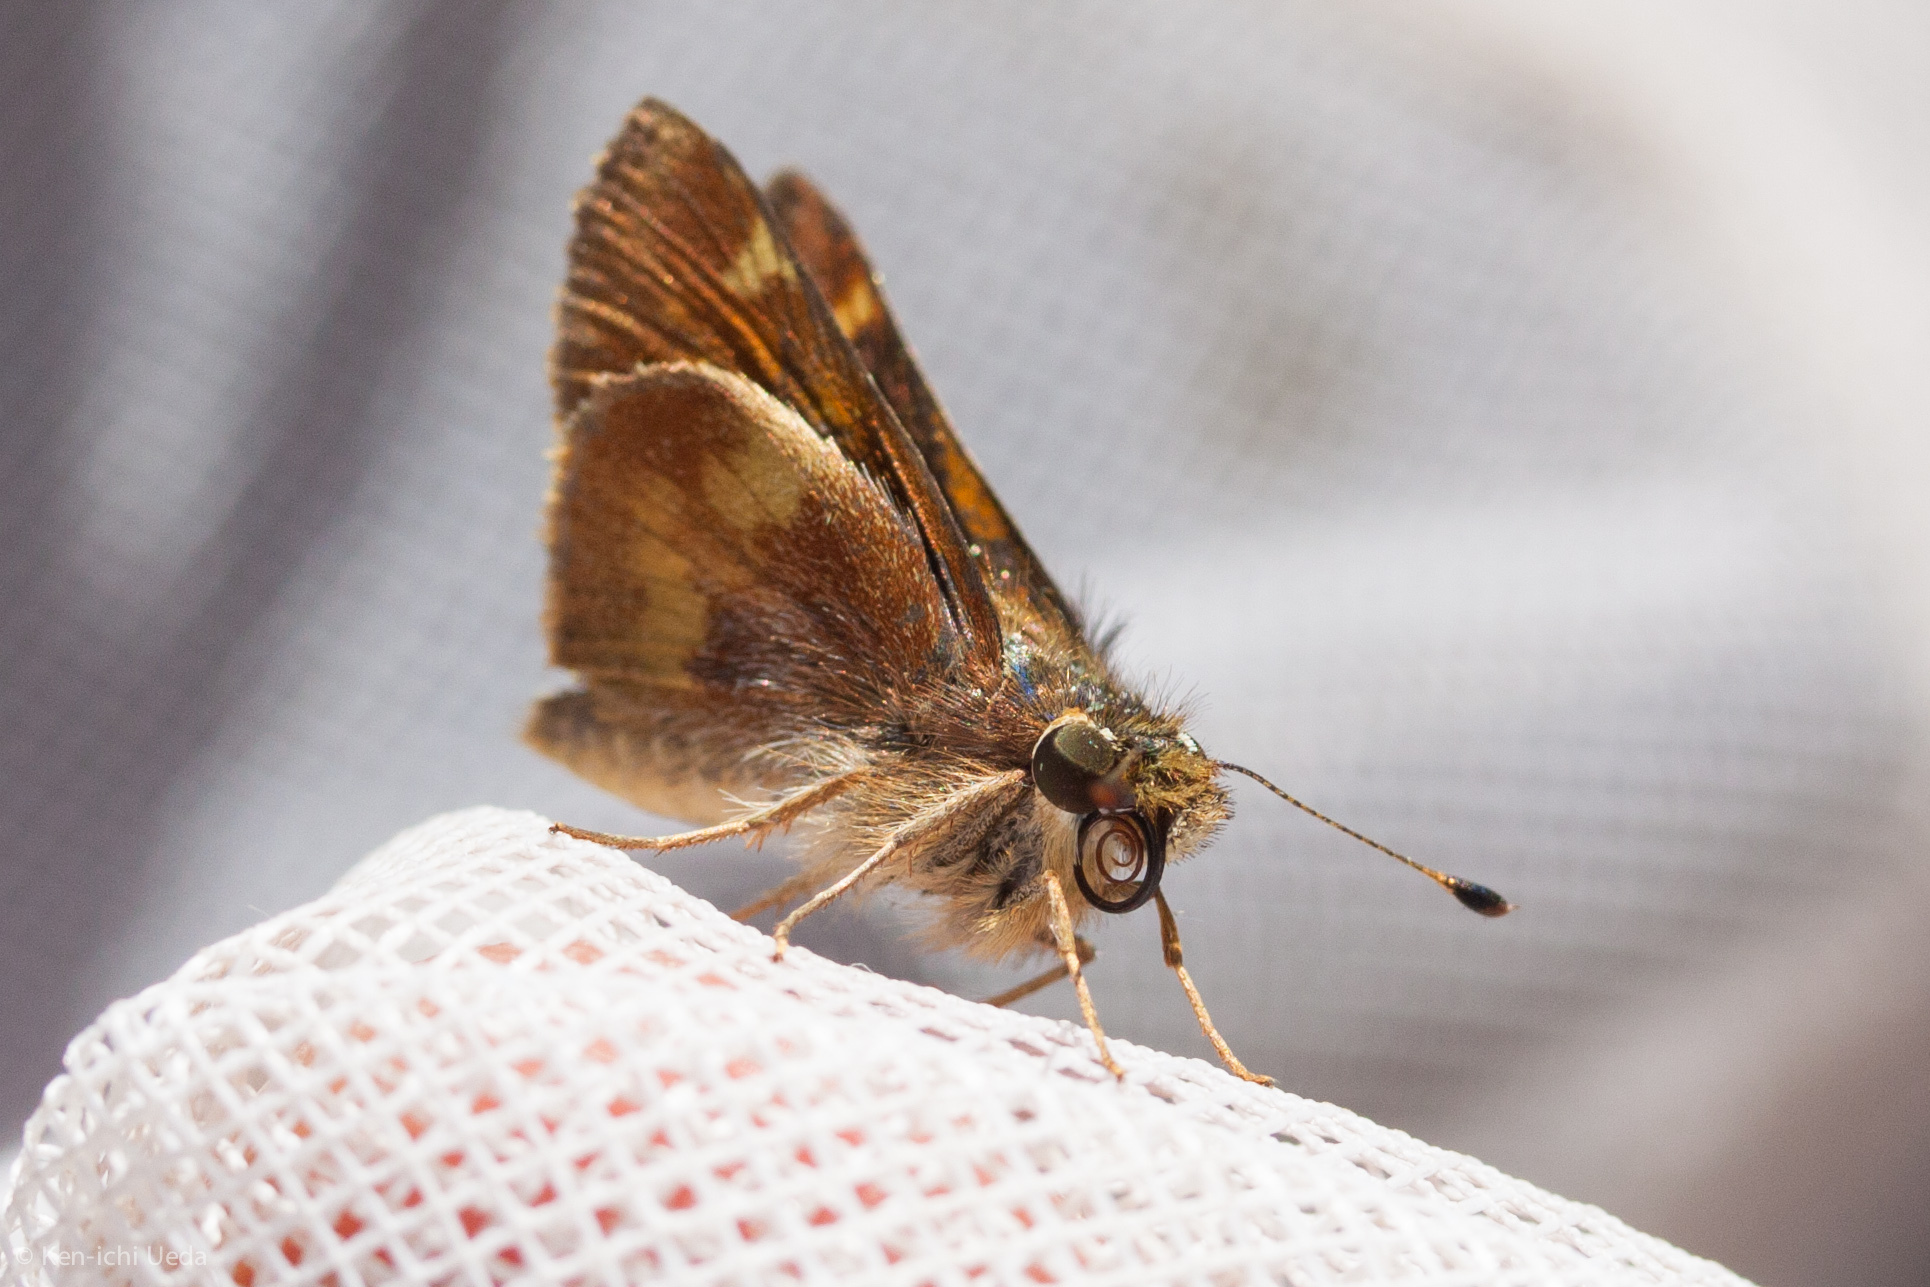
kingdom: Animalia
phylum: Arthropoda
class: Insecta
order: Lepidoptera
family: Hesperiidae
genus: Lon
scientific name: Lon melane
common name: Umber skipper
